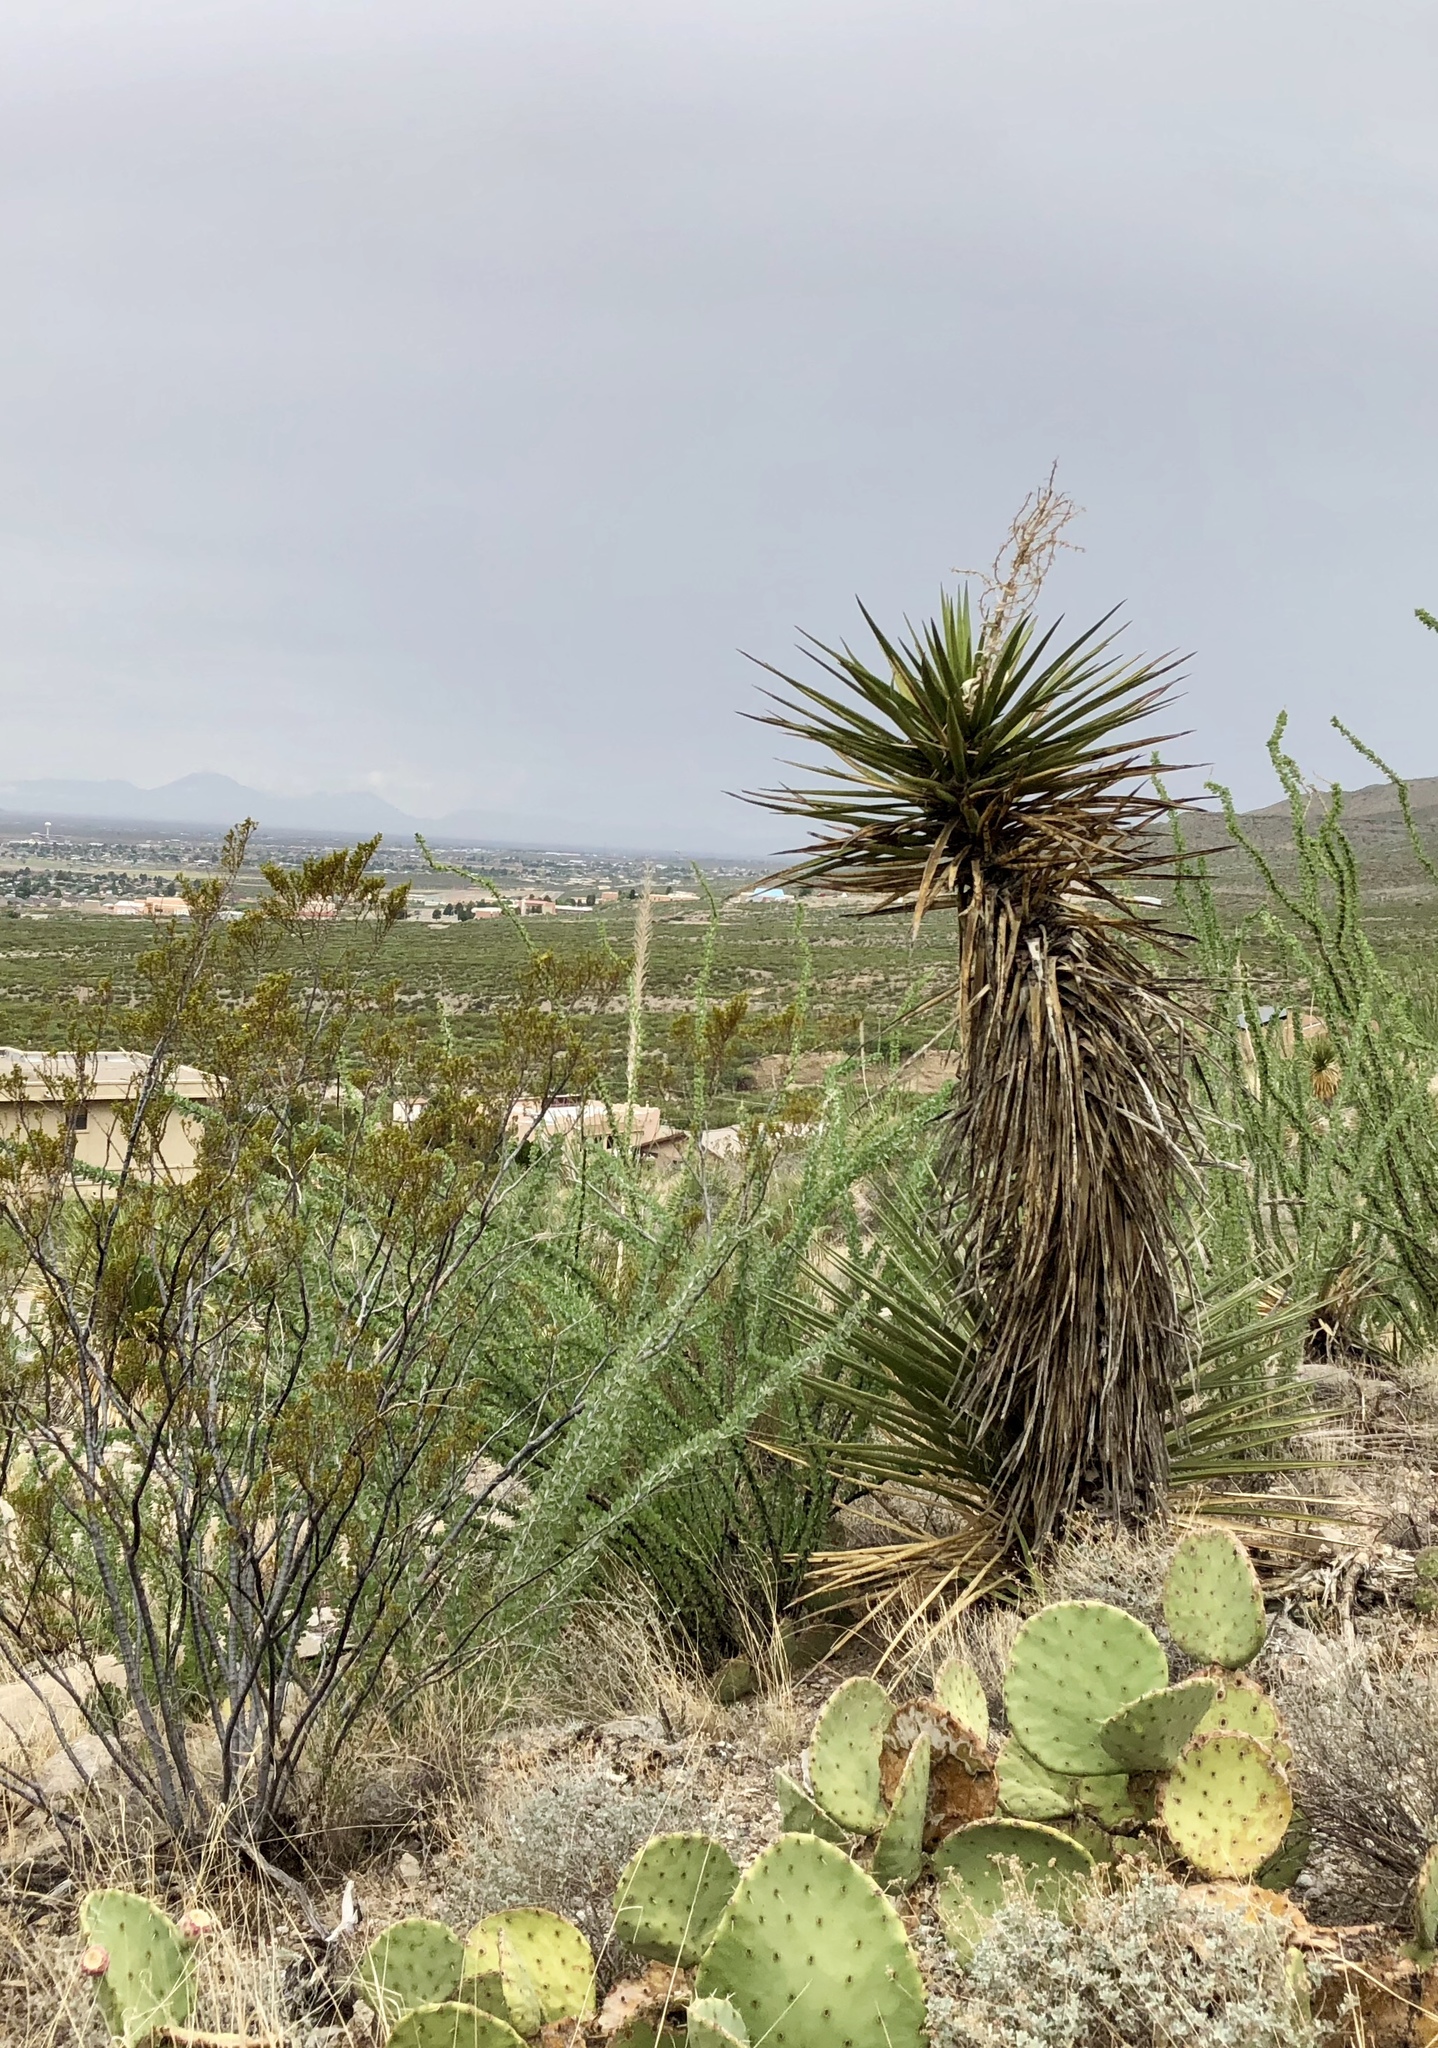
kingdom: Plantae
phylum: Tracheophyta
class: Liliopsida
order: Asparagales
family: Asparagaceae
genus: Yucca
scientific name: Yucca treculiana
